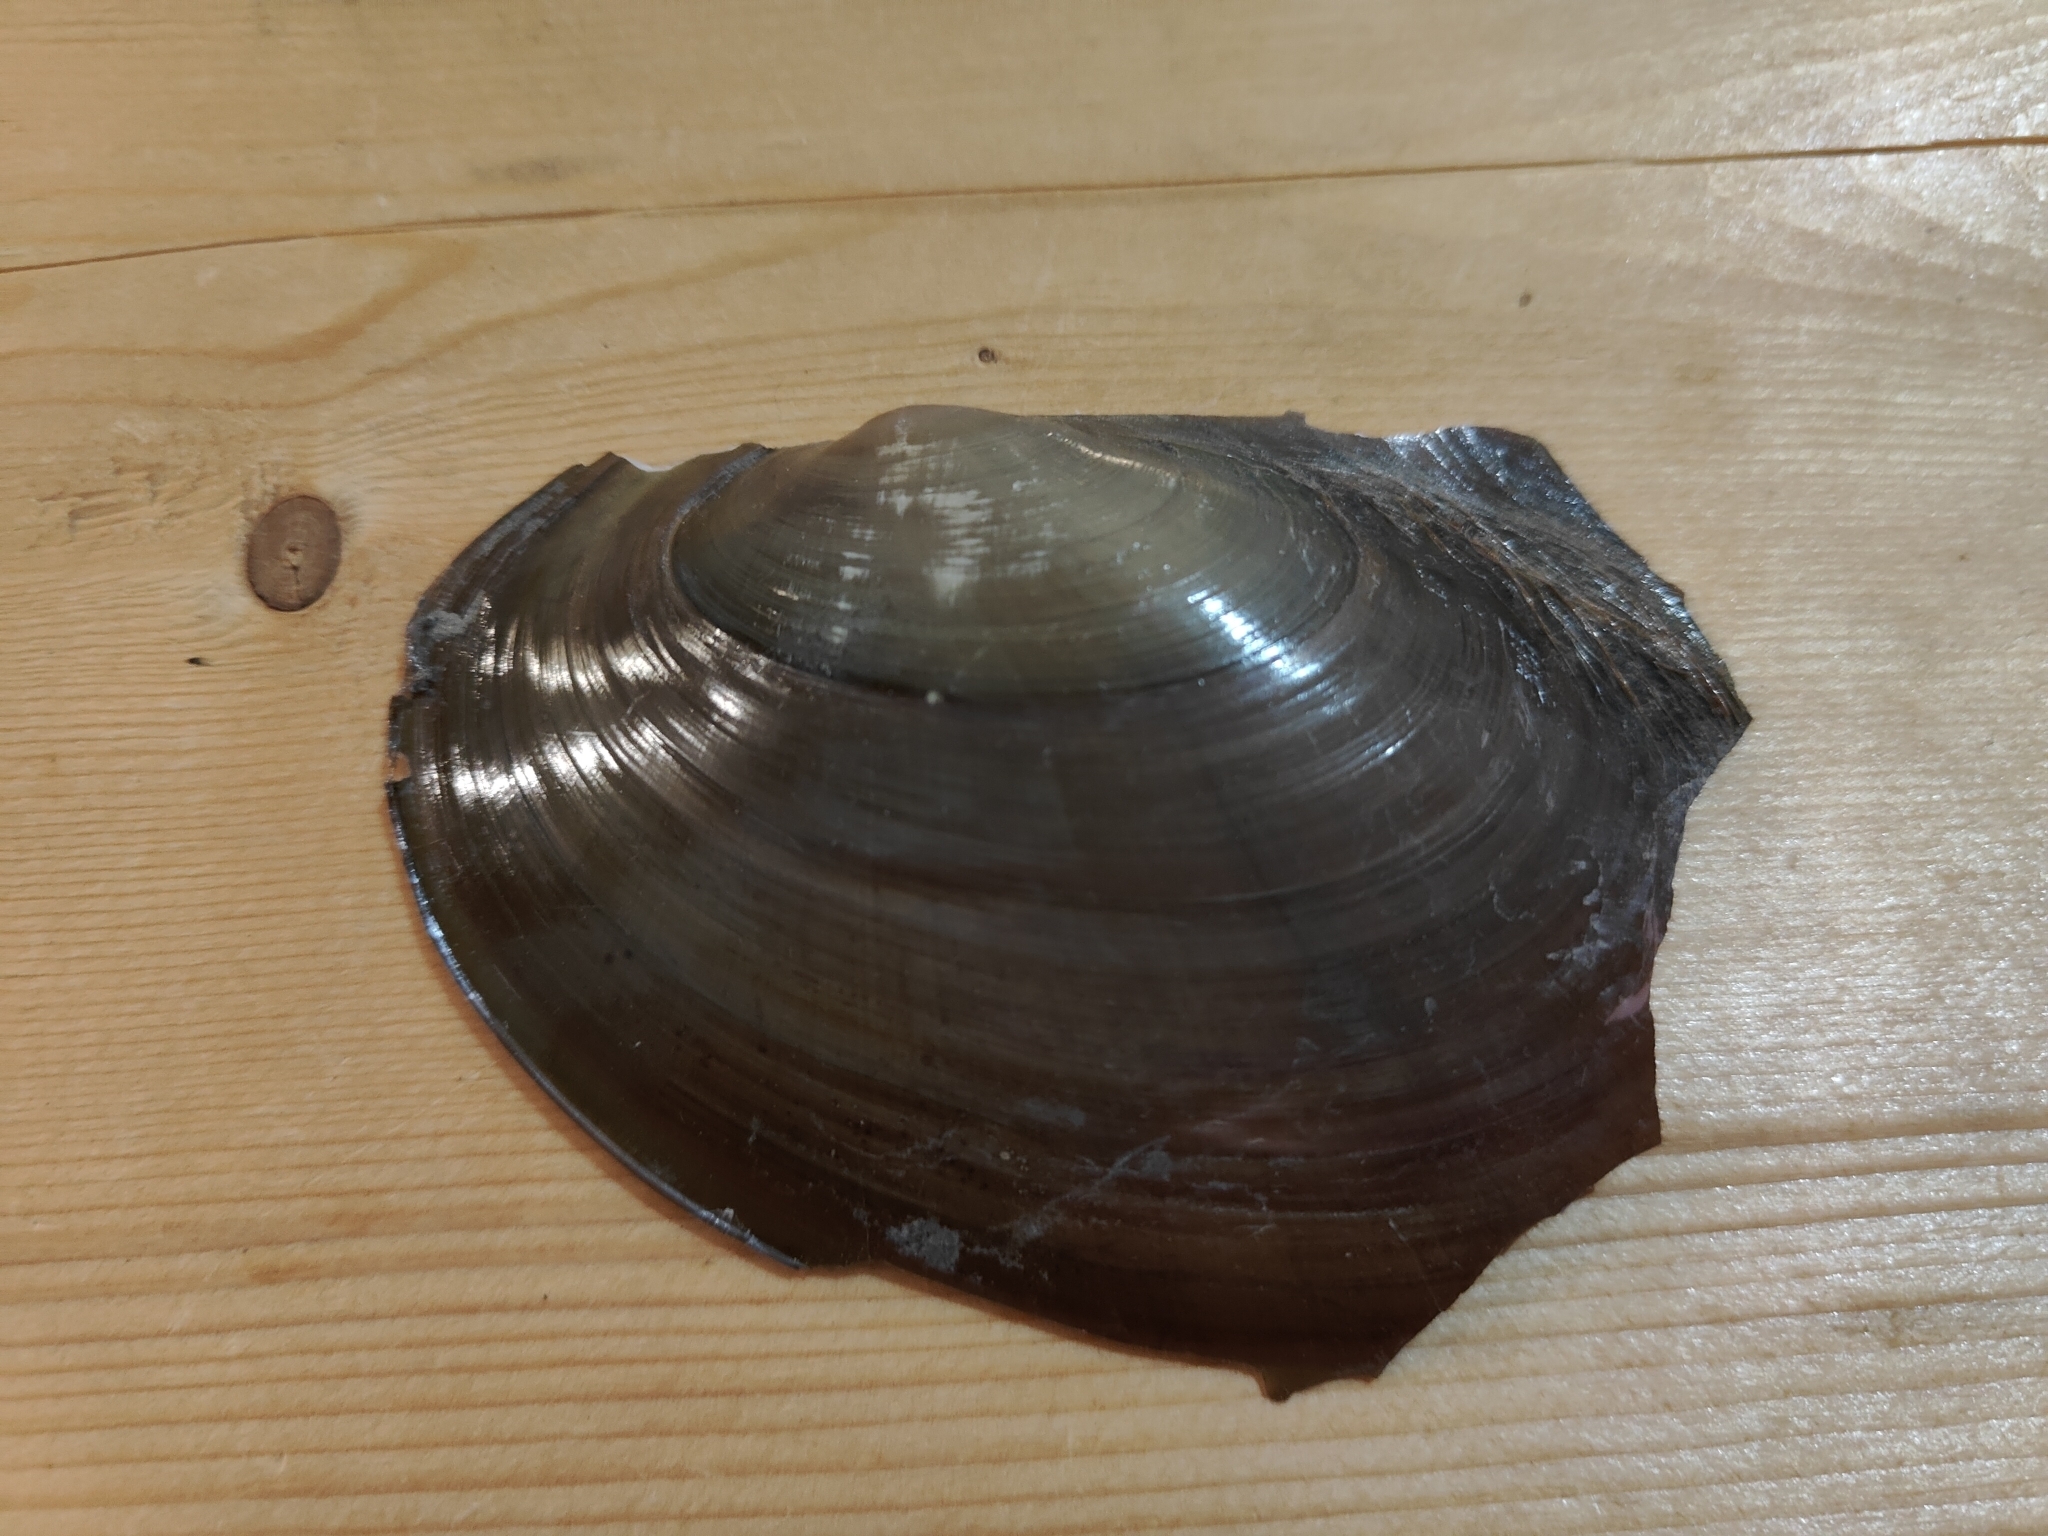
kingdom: Animalia
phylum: Mollusca
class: Bivalvia
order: Unionida
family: Unionidae
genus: Potamilus
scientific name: Potamilus ohiensis
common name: Pink papershell
